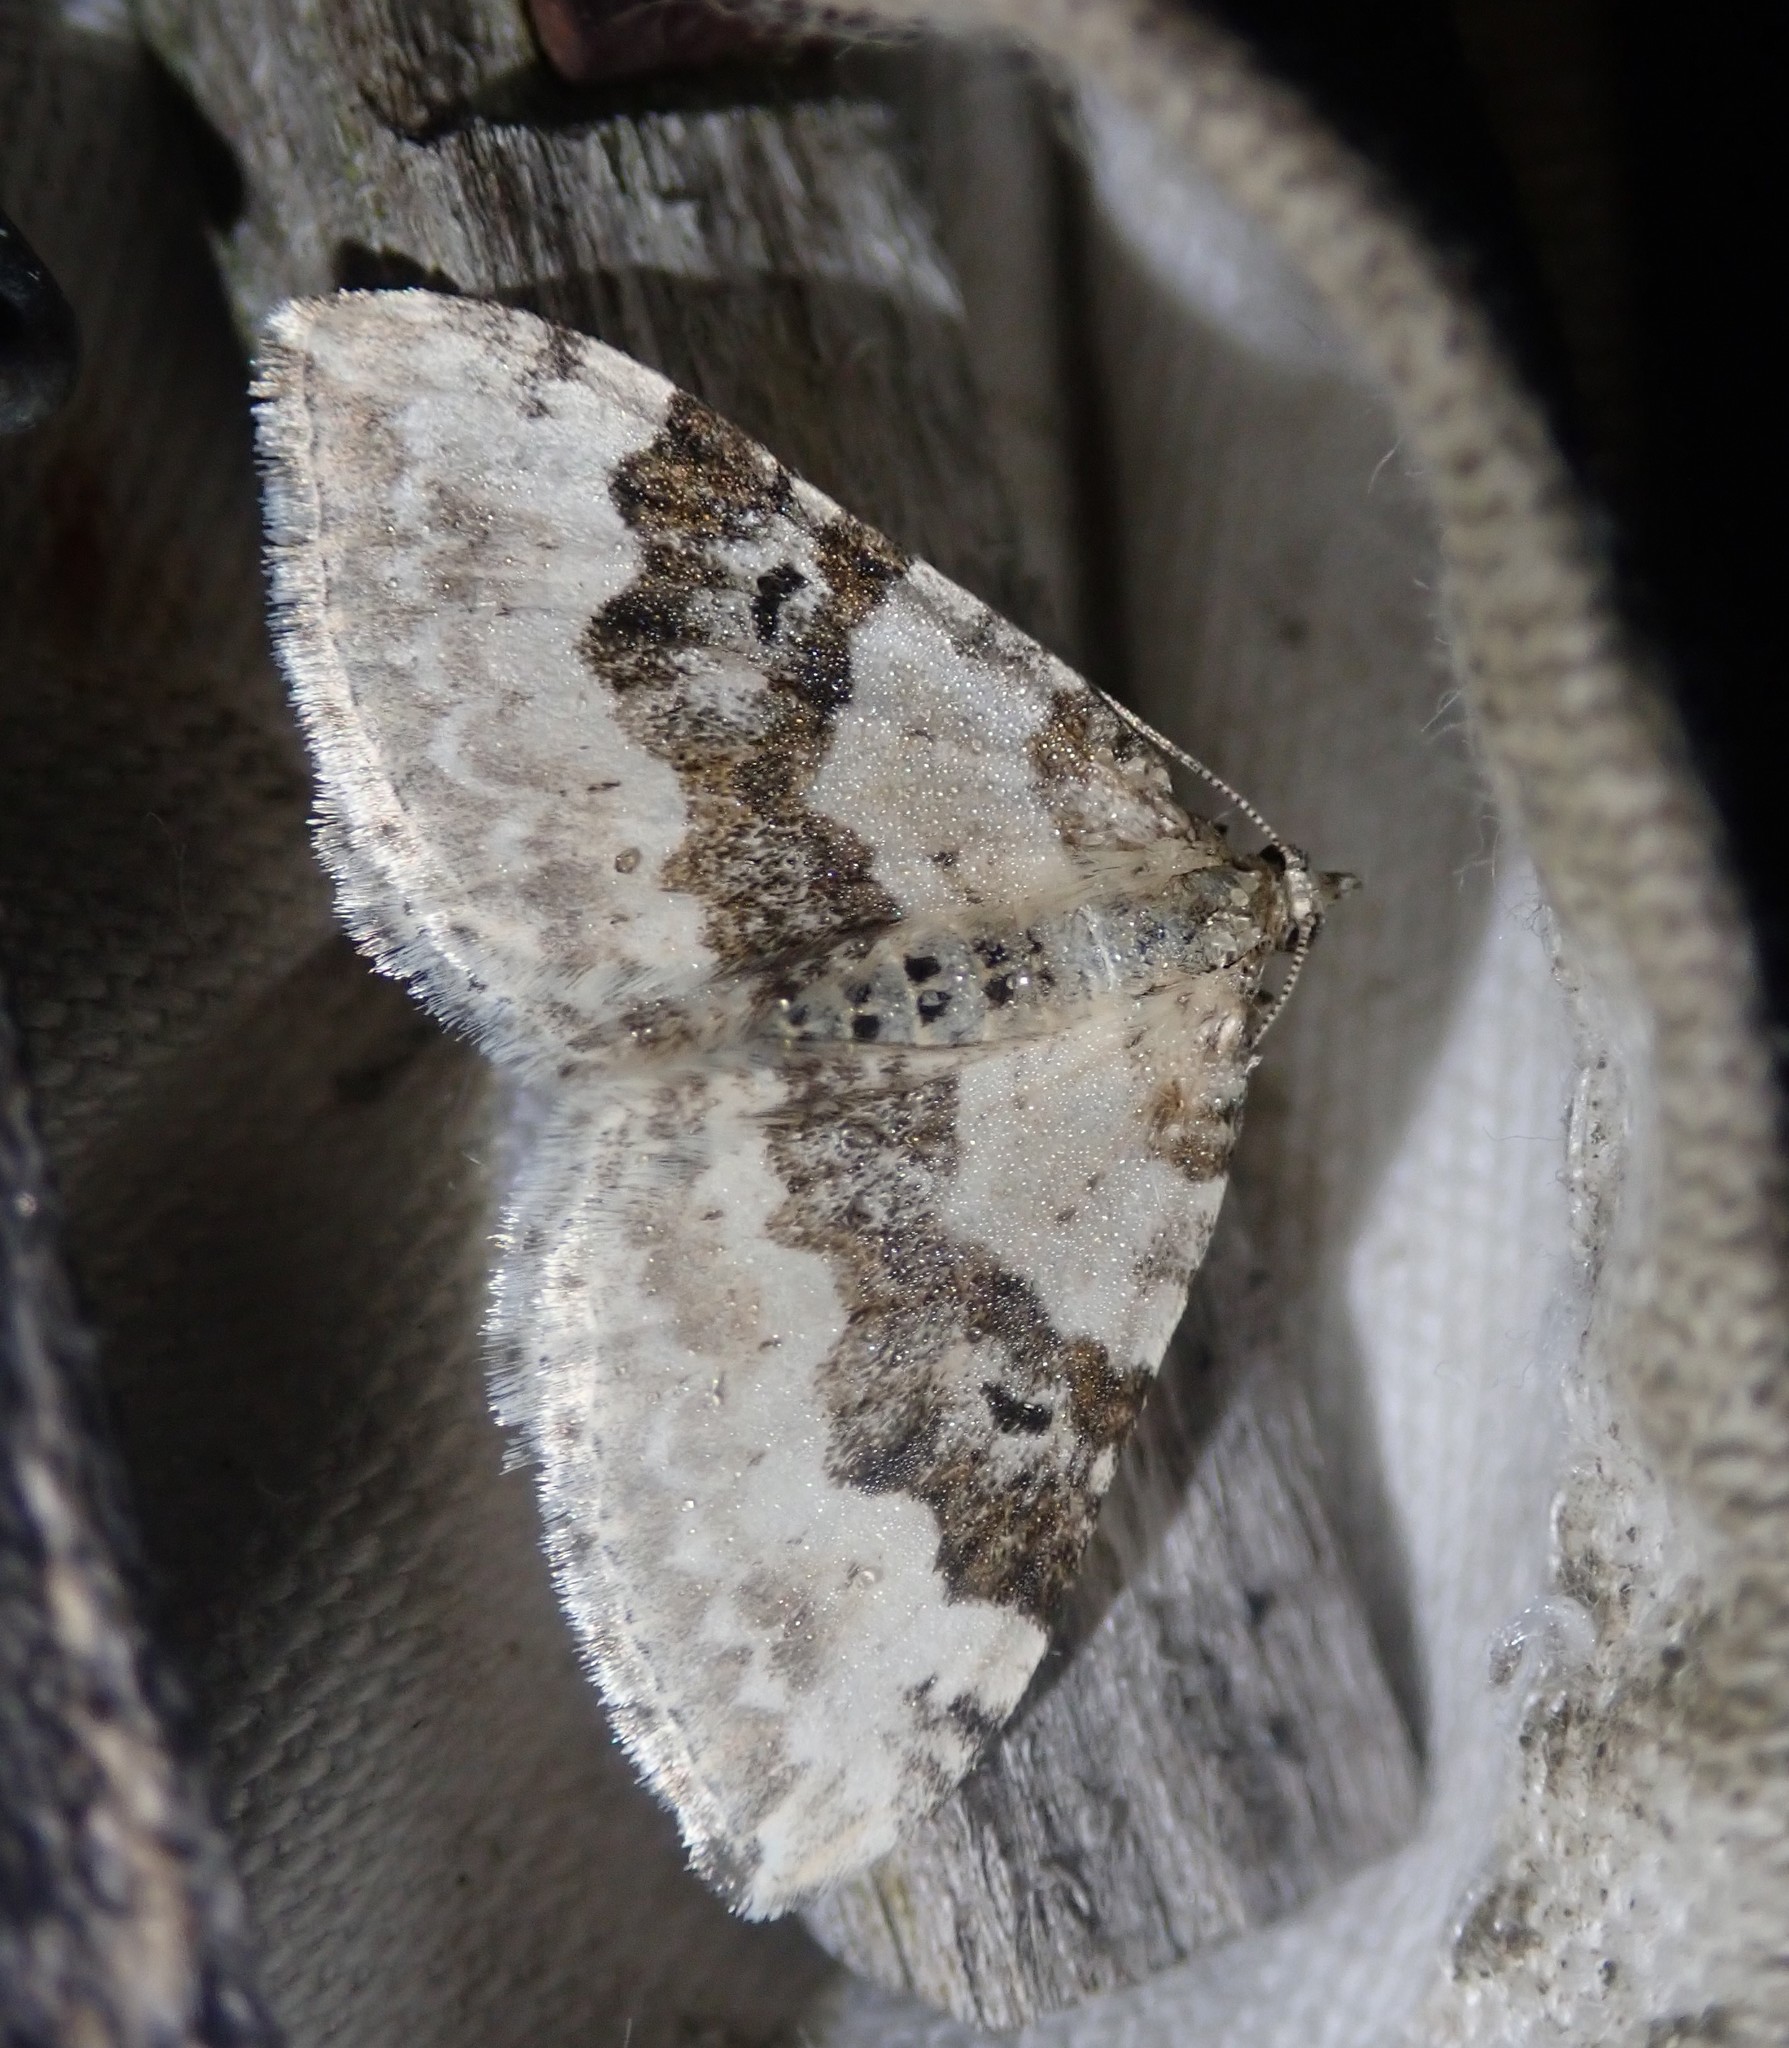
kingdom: Animalia
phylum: Arthropoda
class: Insecta
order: Lepidoptera
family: Geometridae
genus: Xanthorhoe
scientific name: Xanthorhoe montanata
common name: Silver-ground carpet
